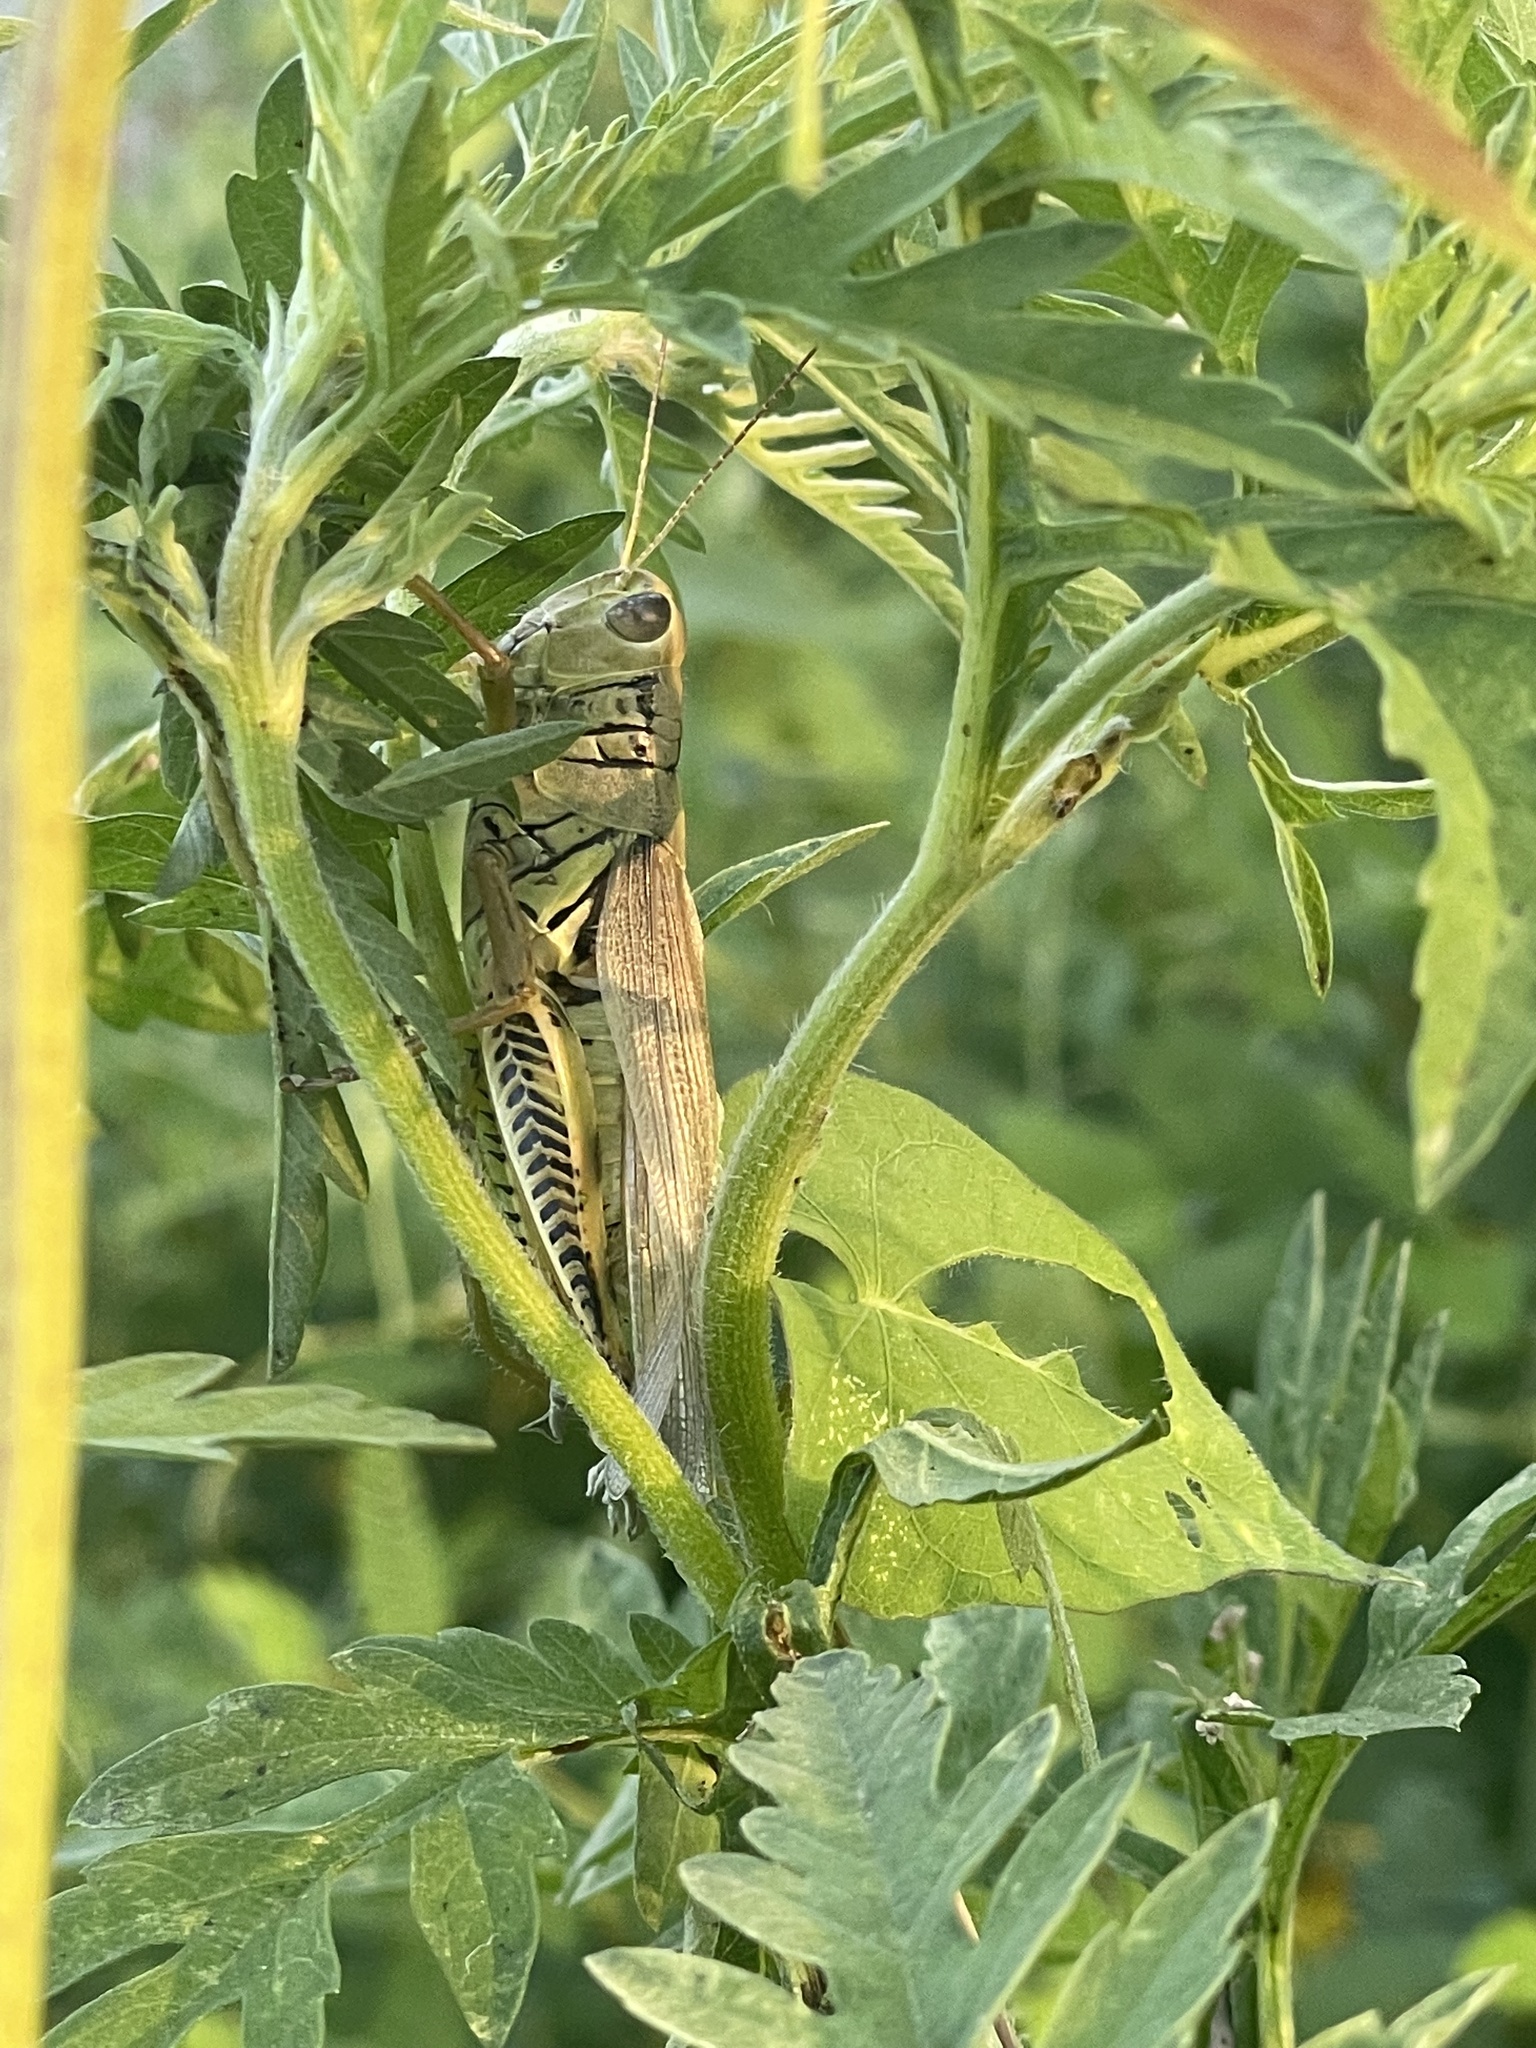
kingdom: Animalia
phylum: Arthropoda
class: Insecta
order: Orthoptera
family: Acrididae
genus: Melanoplus
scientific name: Melanoplus differentialis
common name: Differential grasshopper
